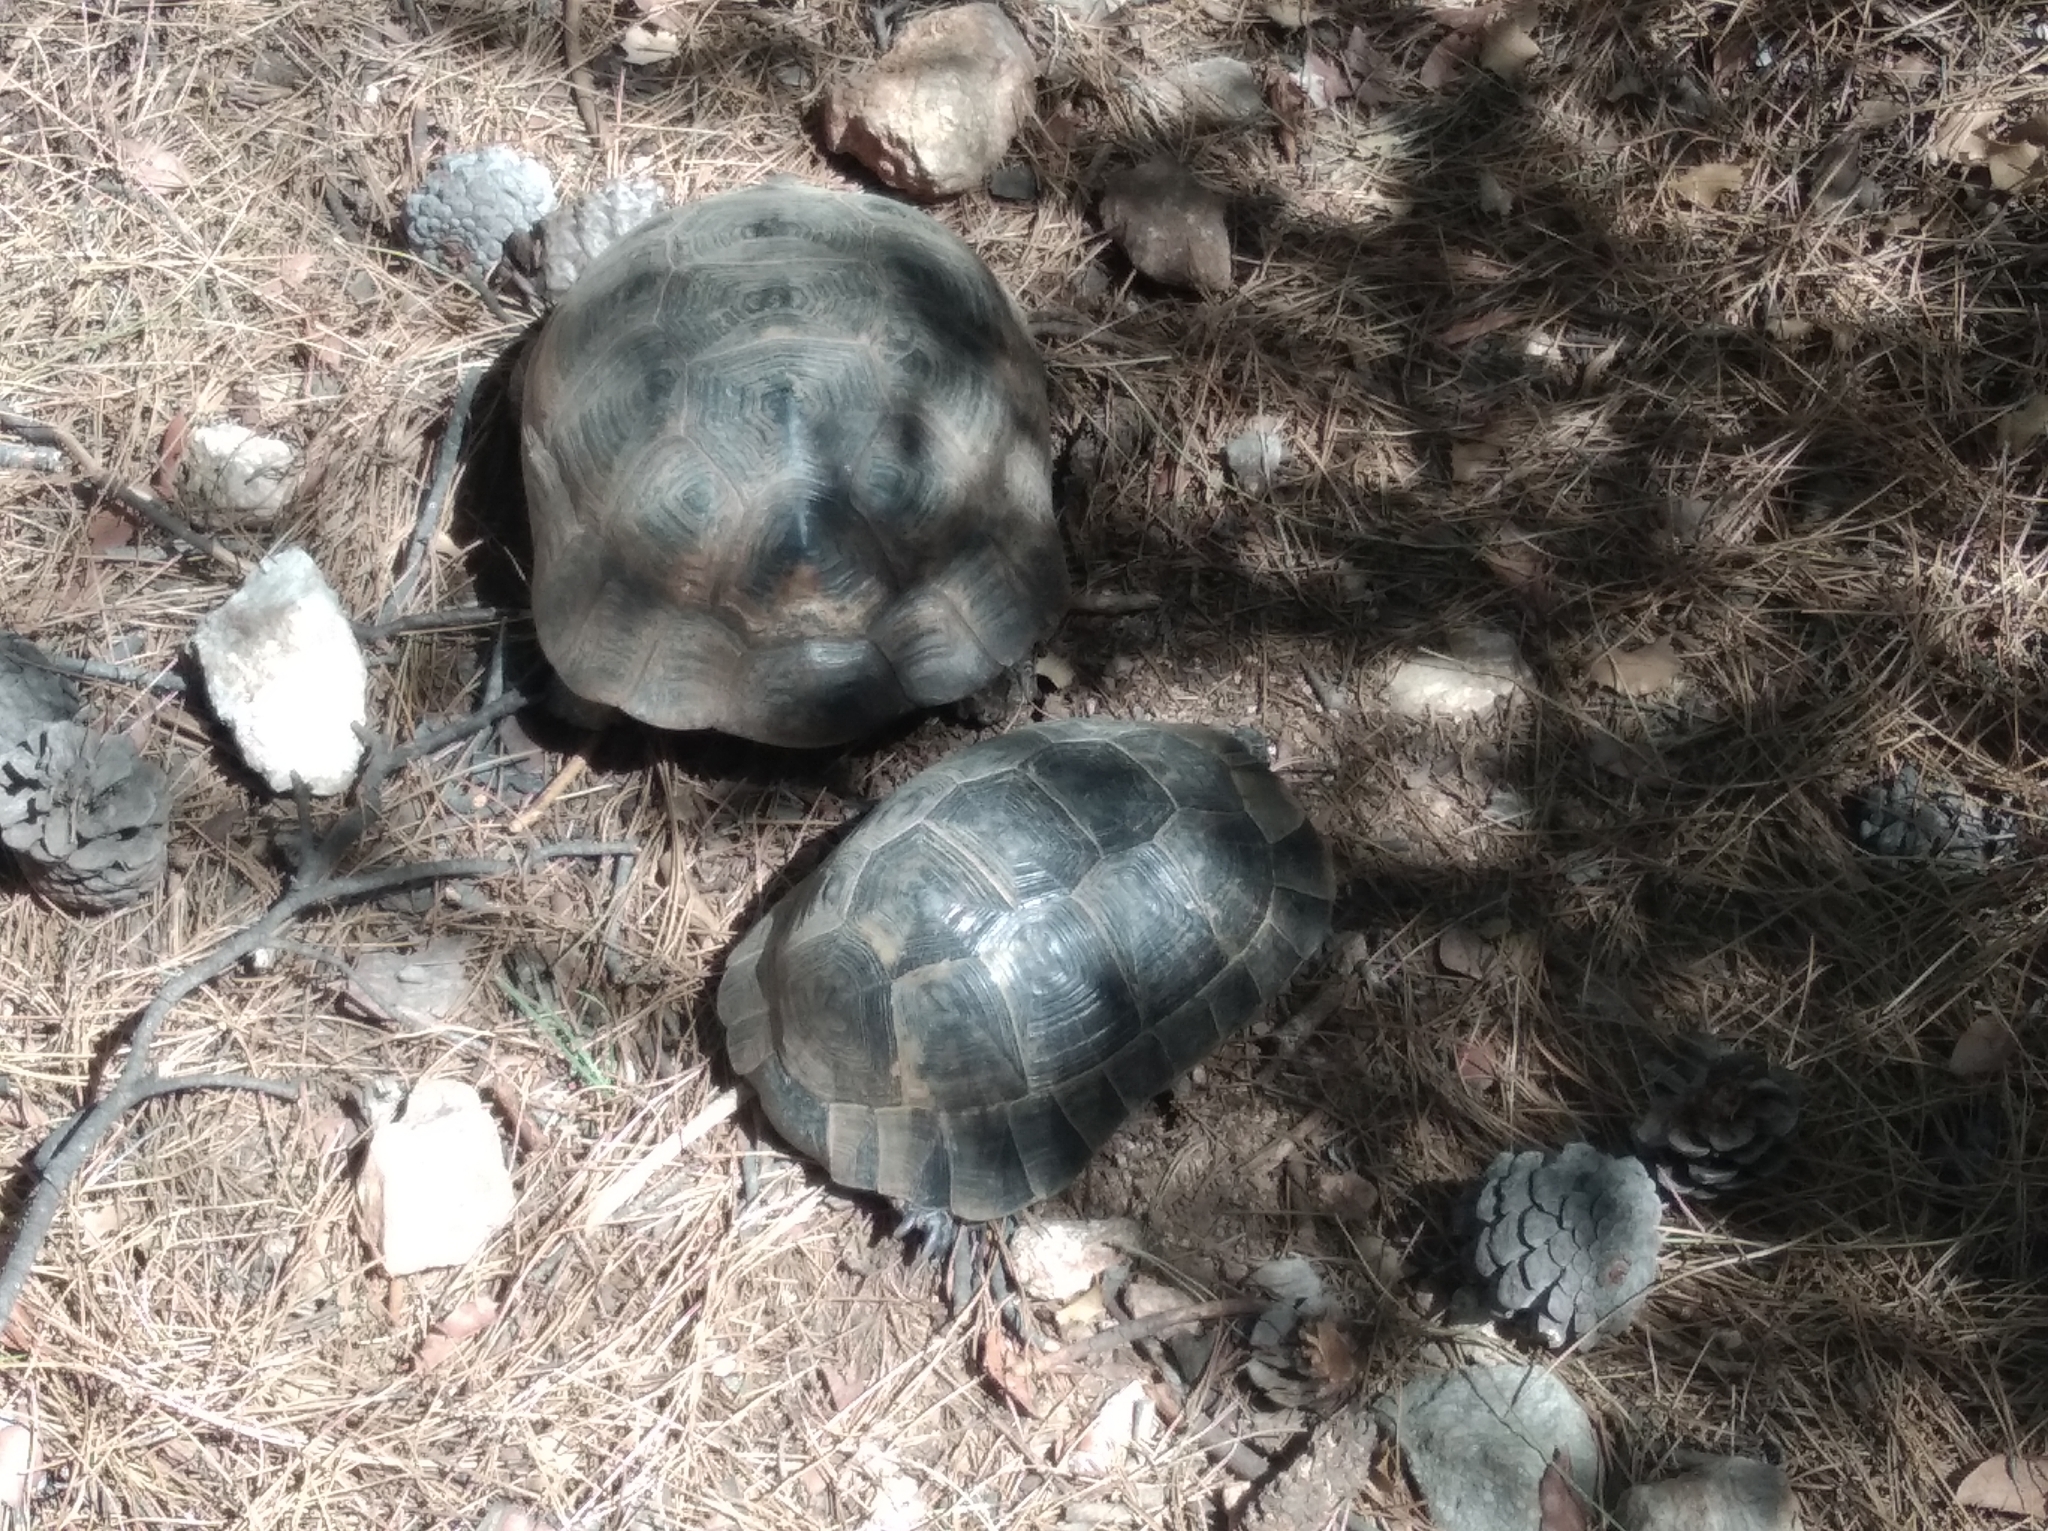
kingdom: Animalia
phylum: Chordata
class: Testudines
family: Testudinidae
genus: Testudo
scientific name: Testudo graeca
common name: Common tortoise
